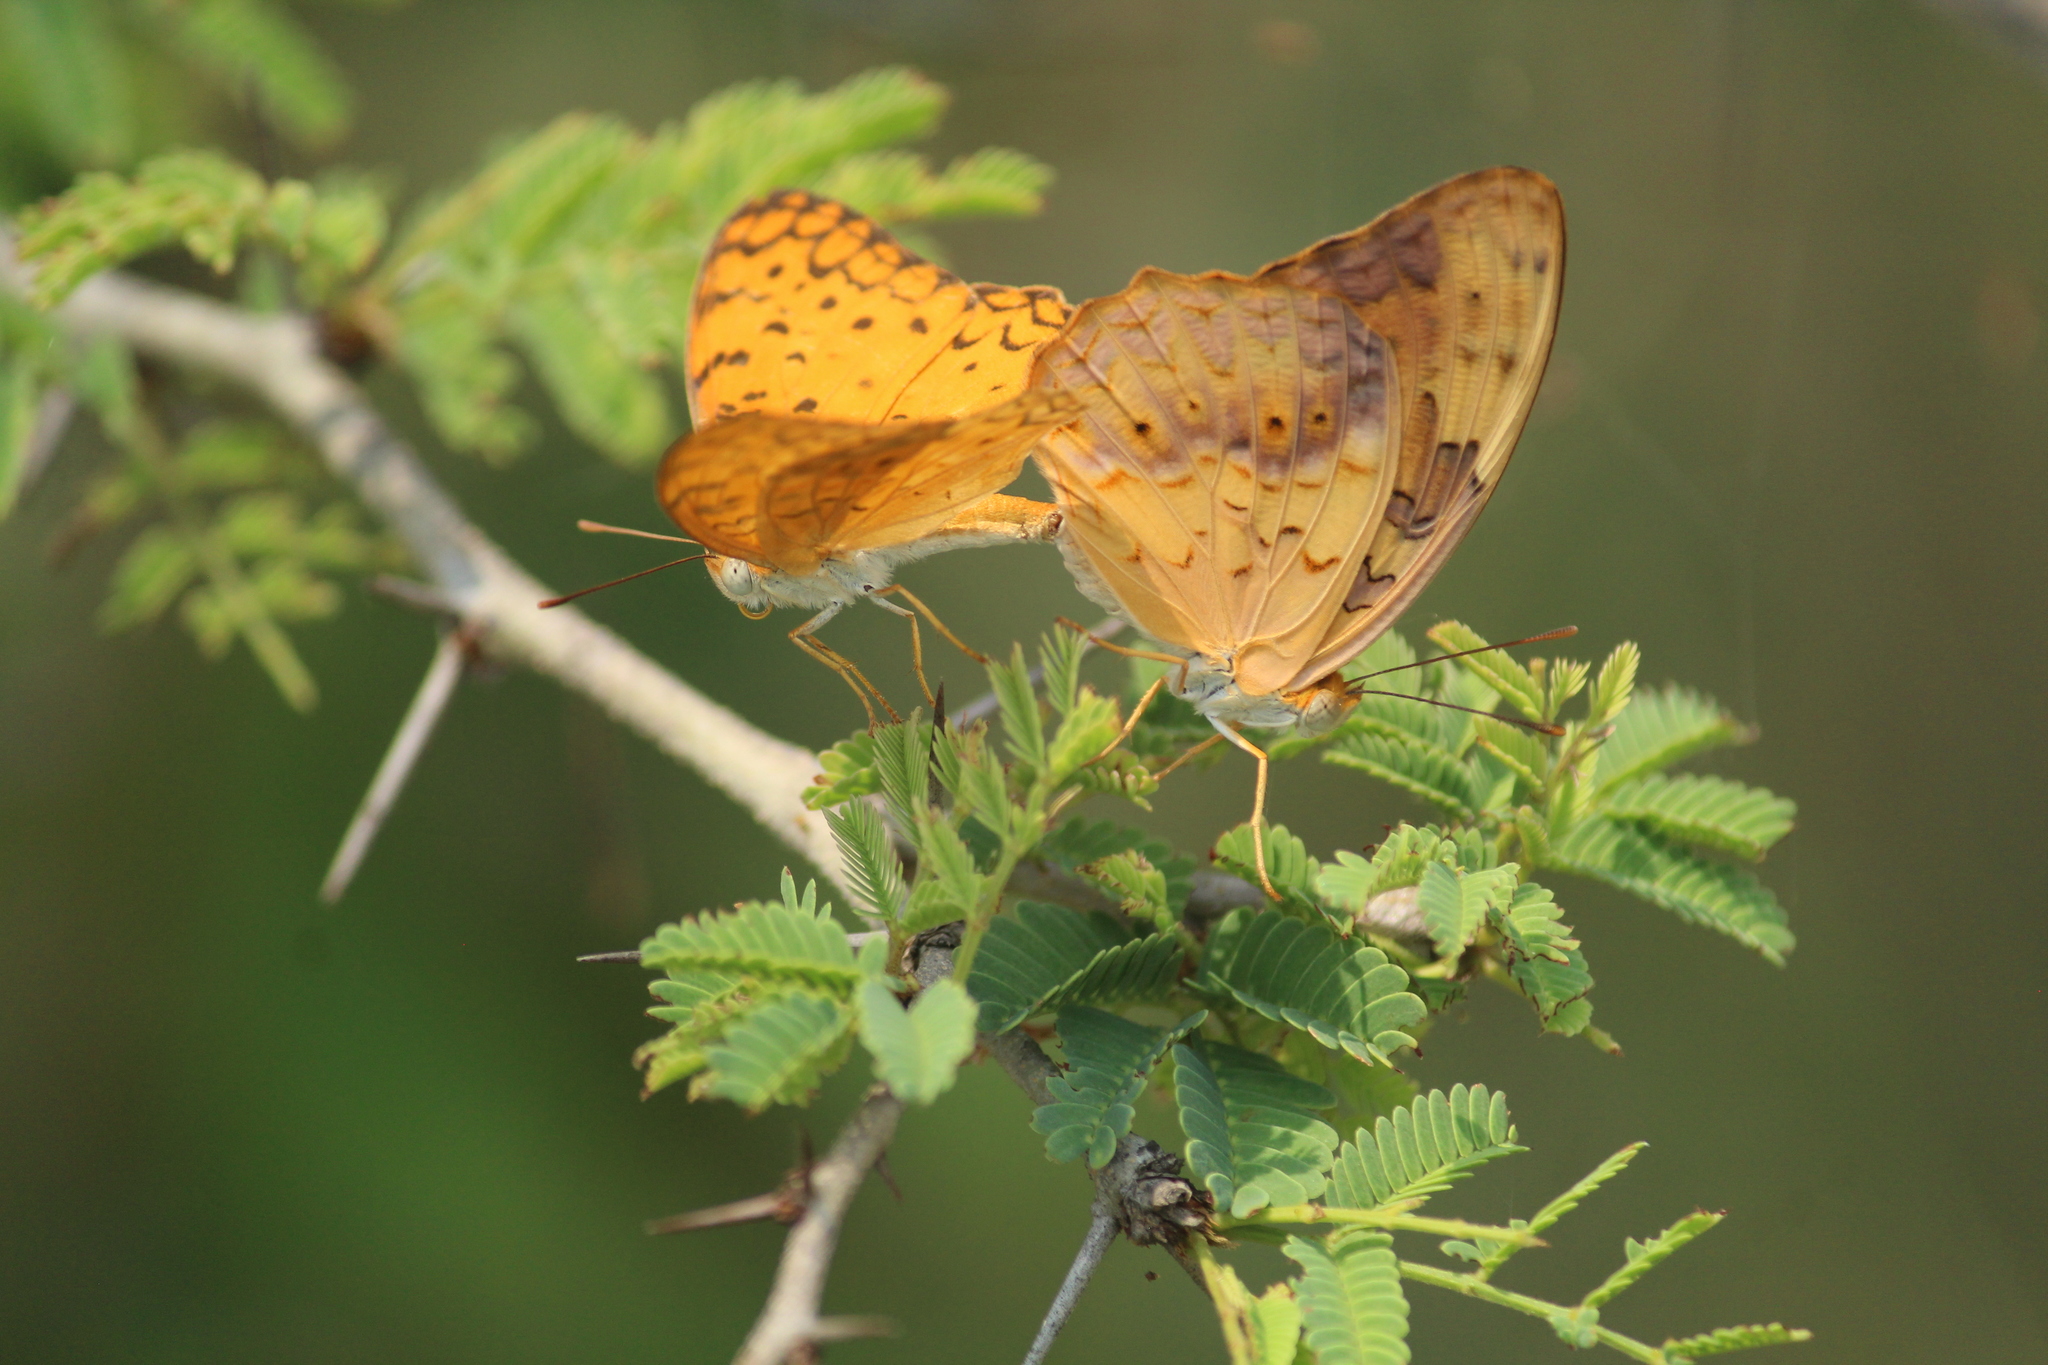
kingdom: Animalia
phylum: Arthropoda
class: Insecta
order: Lepidoptera
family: Nymphalidae
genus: Phalanta
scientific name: Phalanta phalantha
